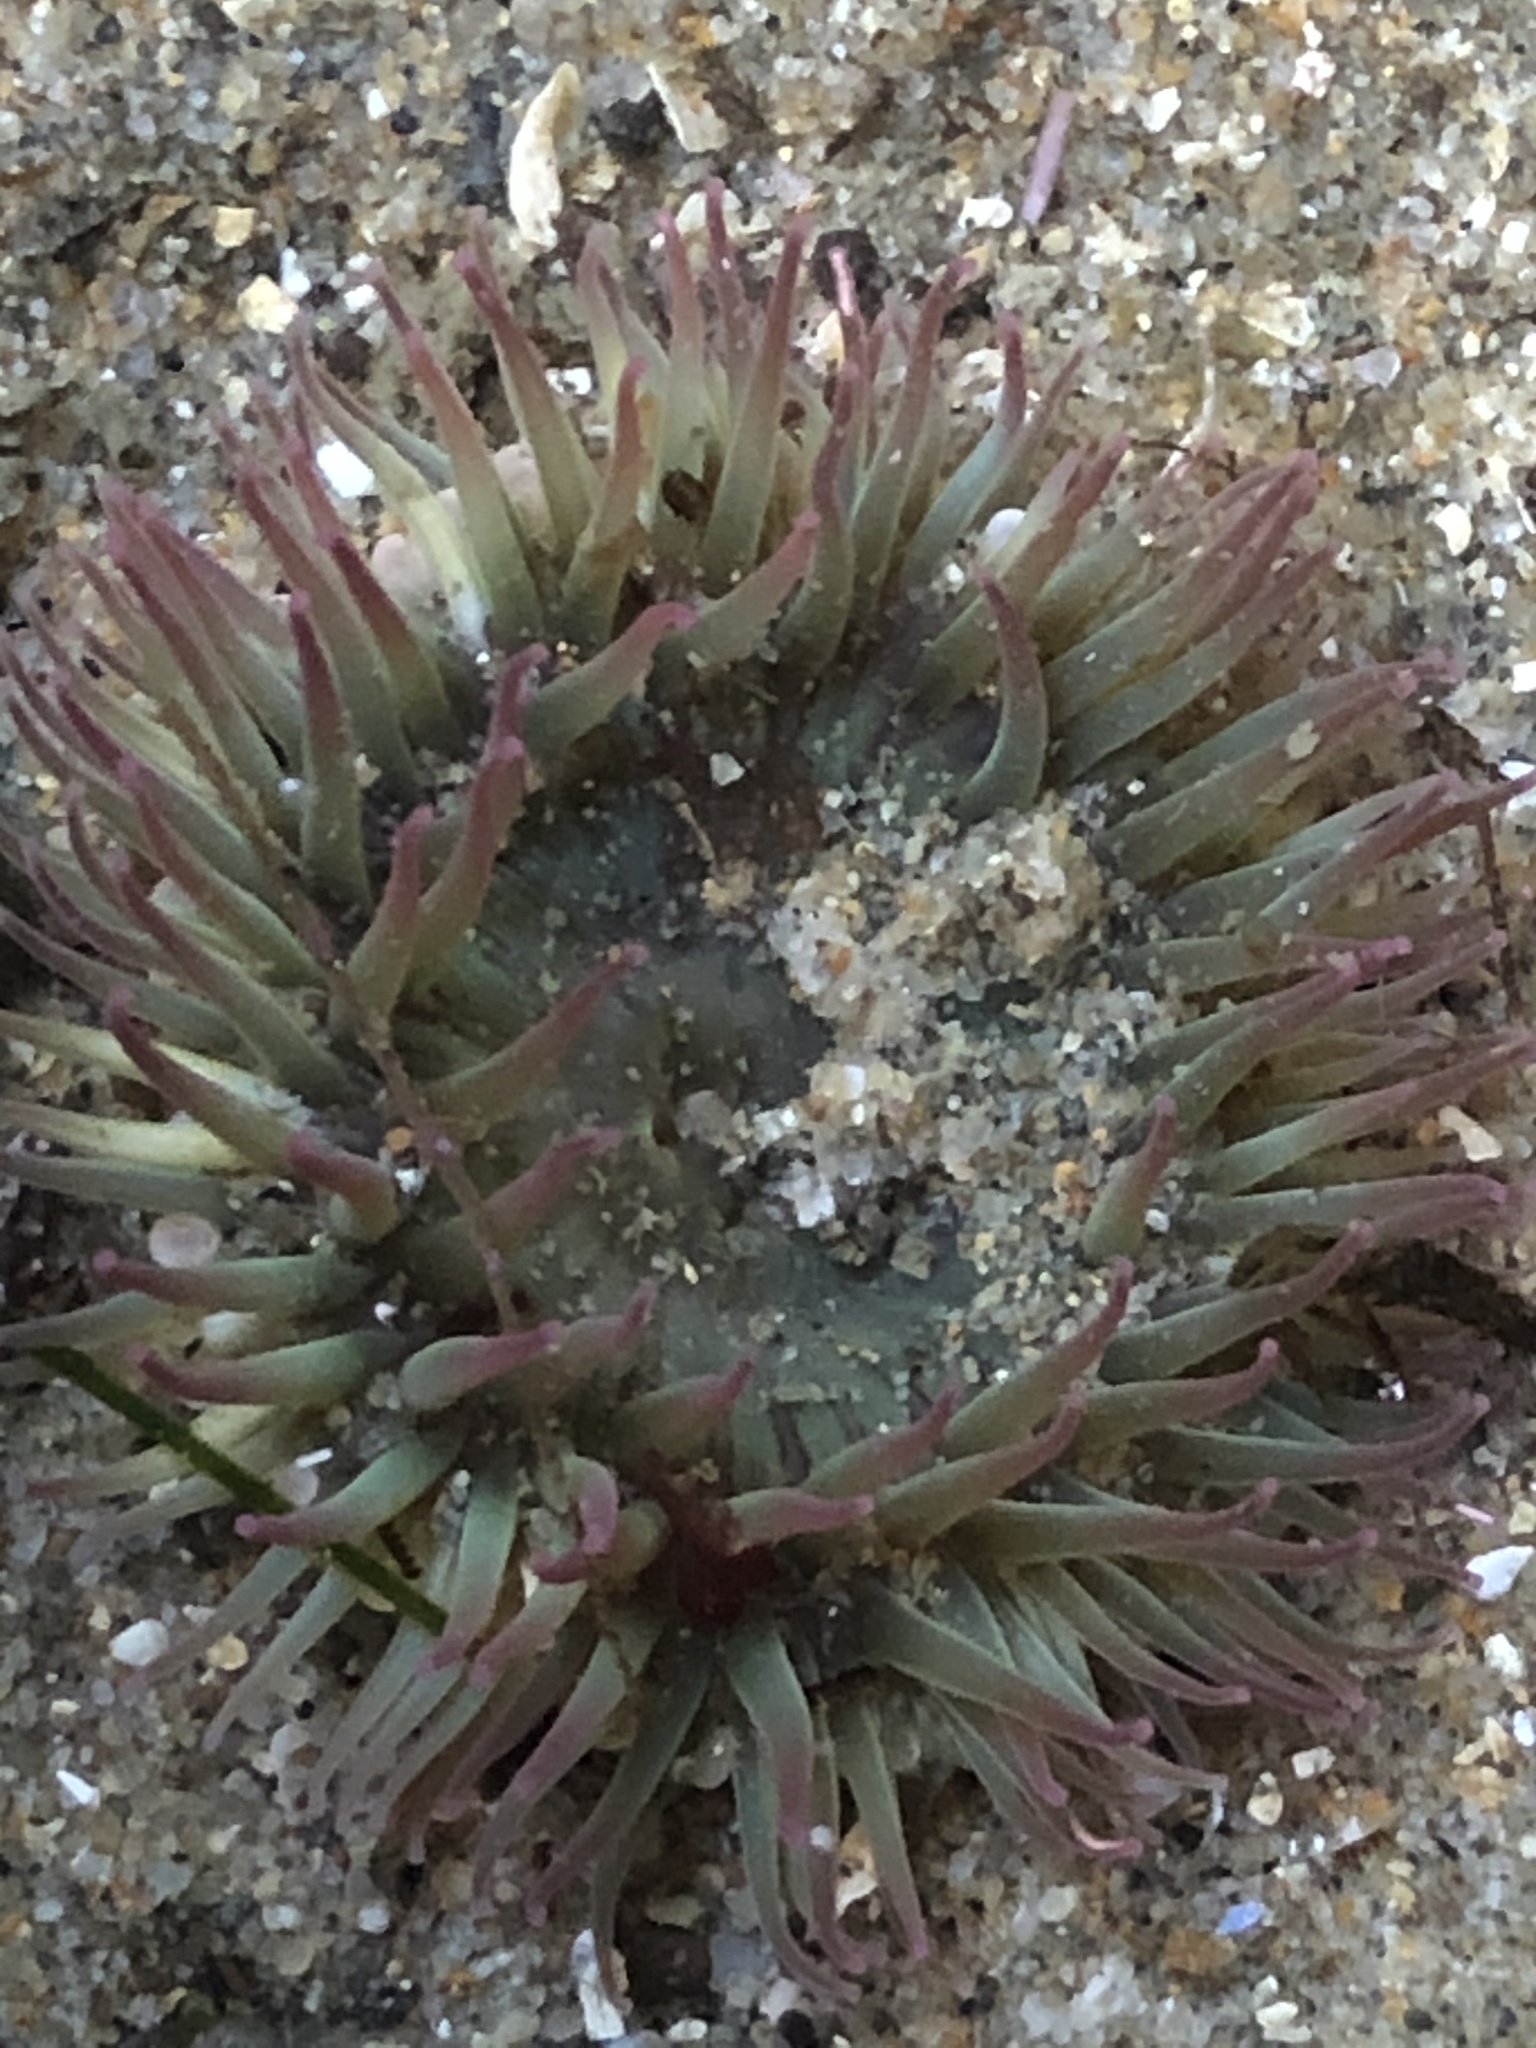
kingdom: Animalia
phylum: Cnidaria
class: Anthozoa
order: Actiniaria
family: Actiniidae
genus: Anthopleura
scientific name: Anthopleura elegantissima
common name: Clonal anemone
